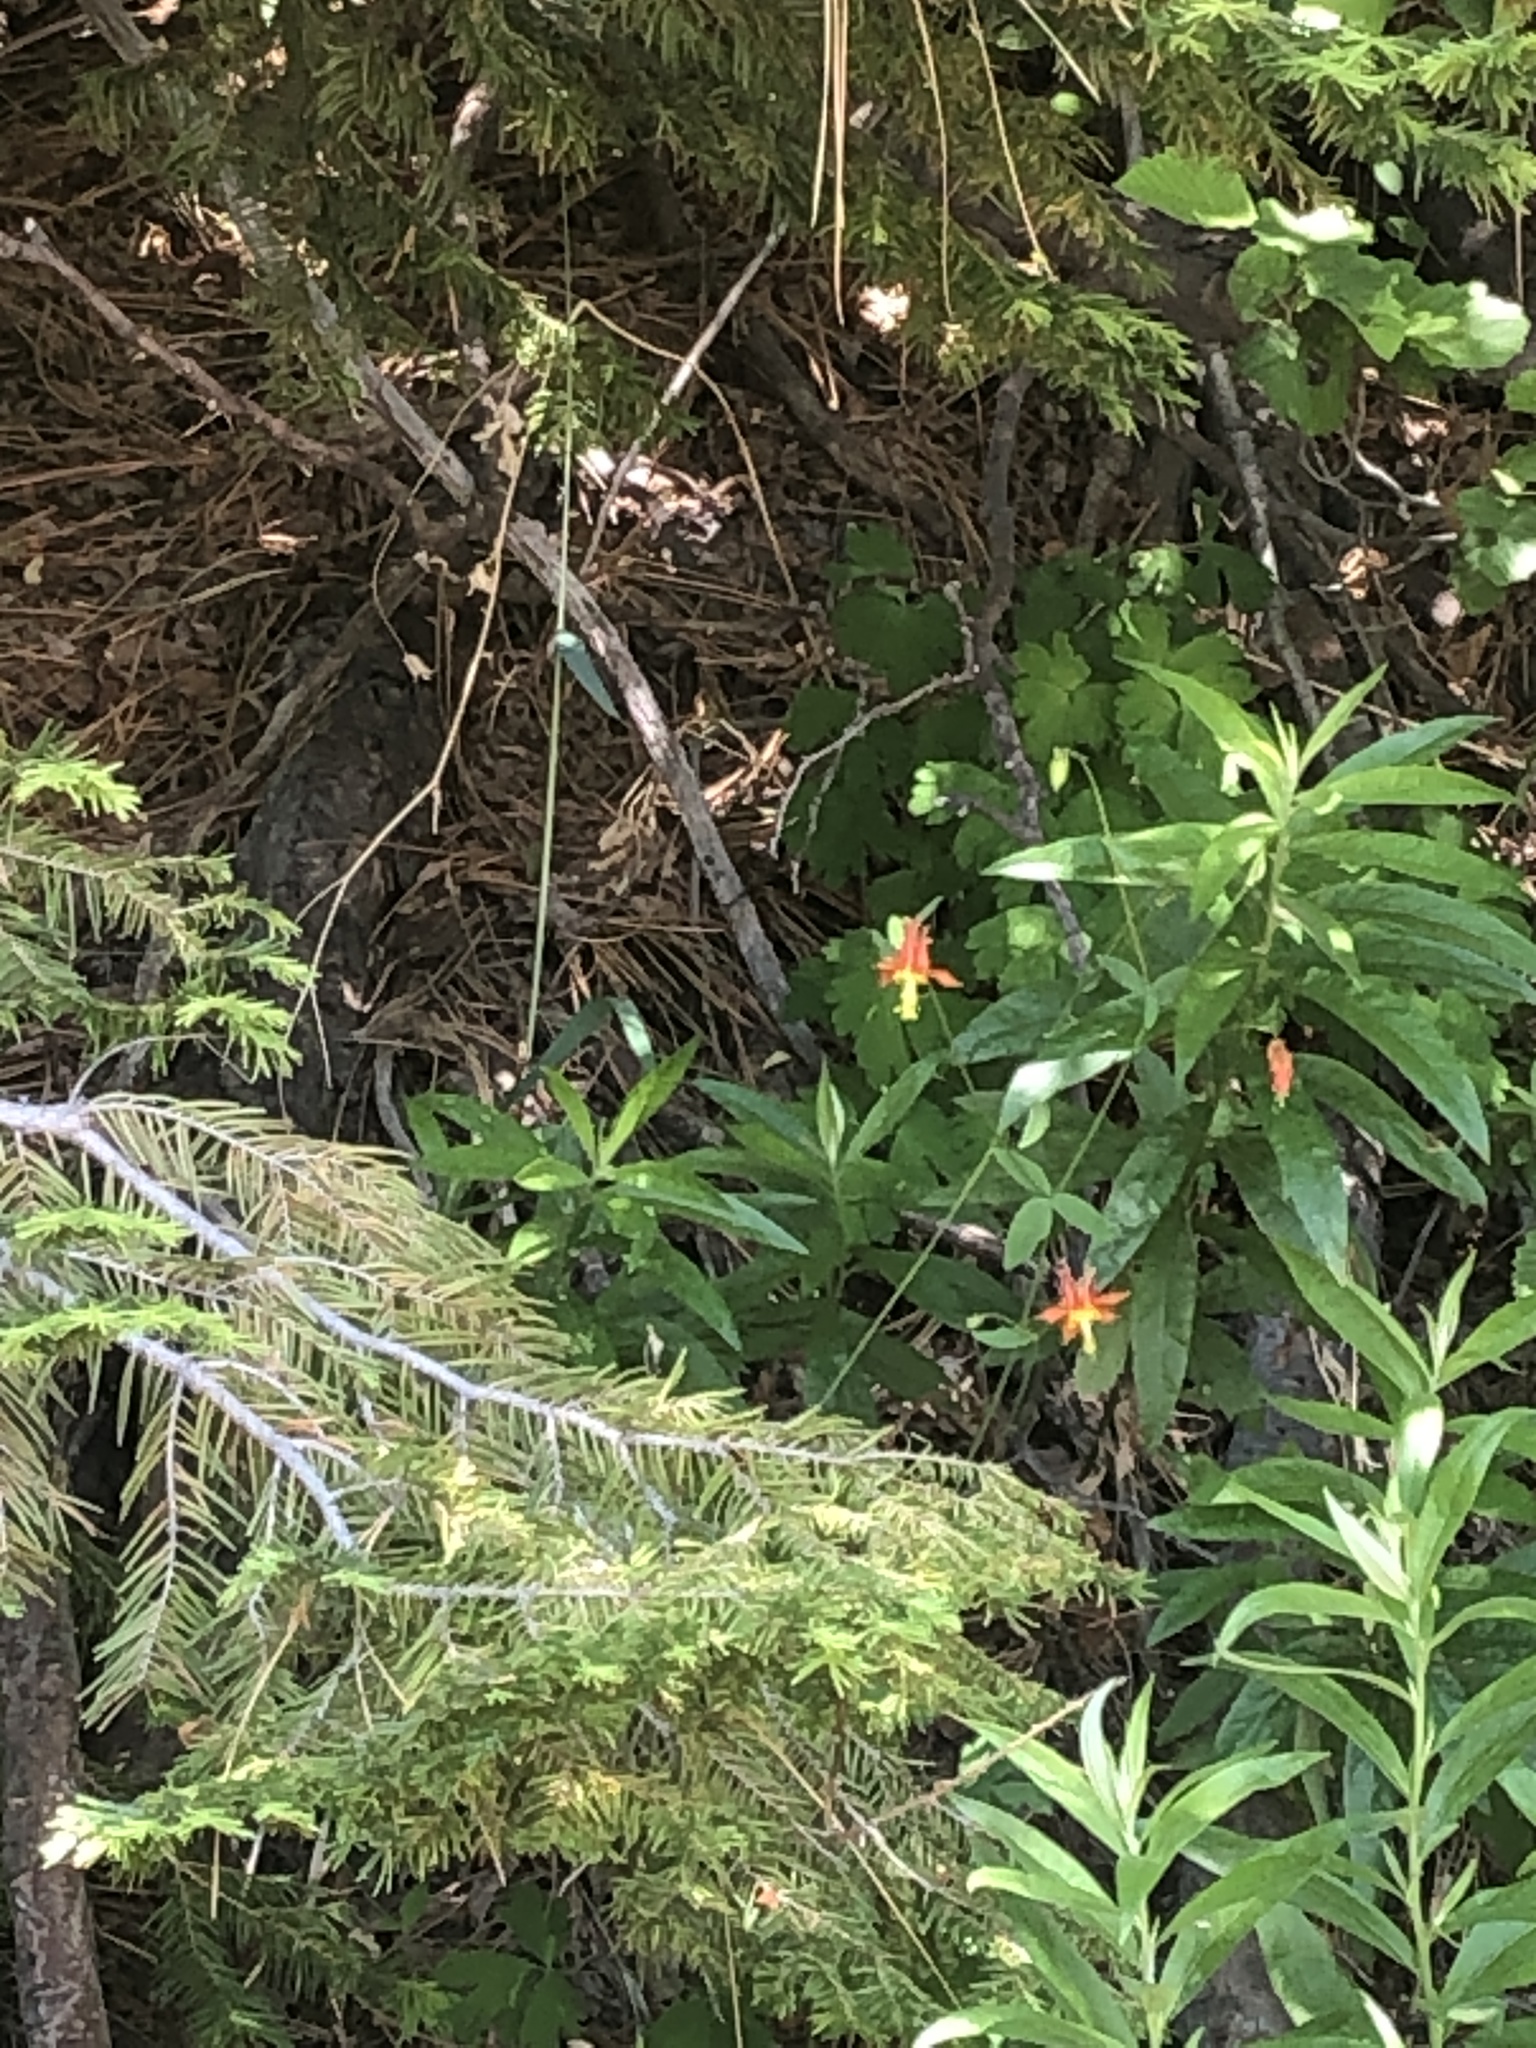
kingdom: Plantae
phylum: Tracheophyta
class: Magnoliopsida
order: Ranunculales
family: Ranunculaceae
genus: Aquilegia
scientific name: Aquilegia formosa
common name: Sitka columbine
